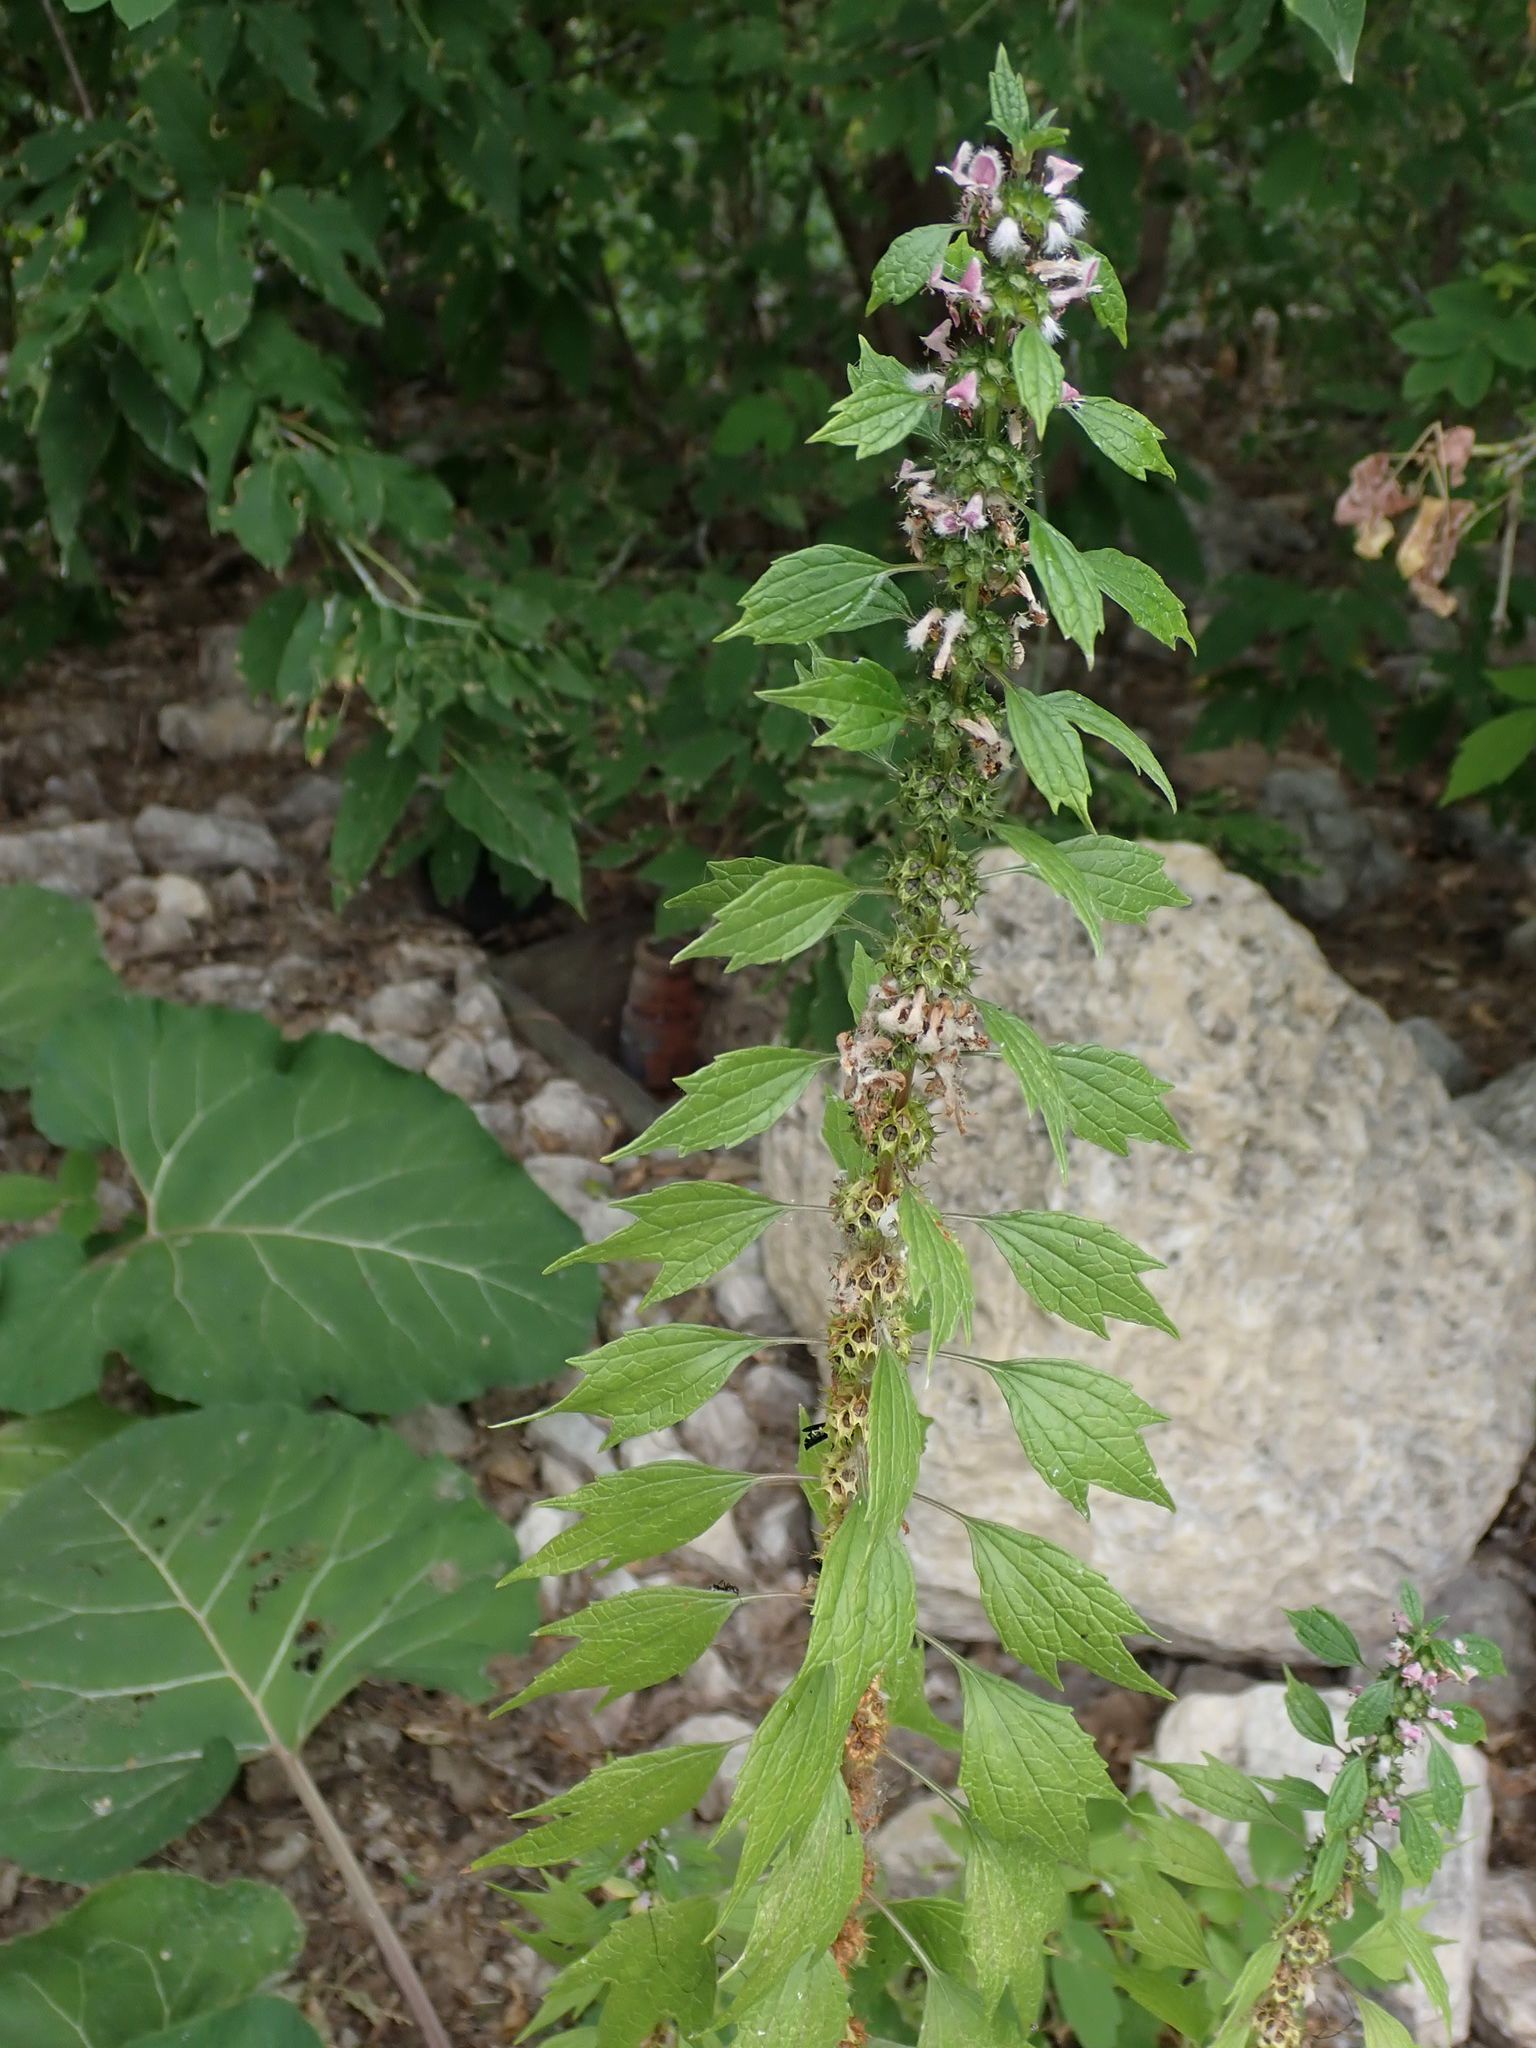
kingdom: Plantae
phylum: Tracheophyta
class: Magnoliopsida
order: Lamiales
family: Lamiaceae
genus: Leonurus
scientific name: Leonurus cardiaca
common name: Motherwort
